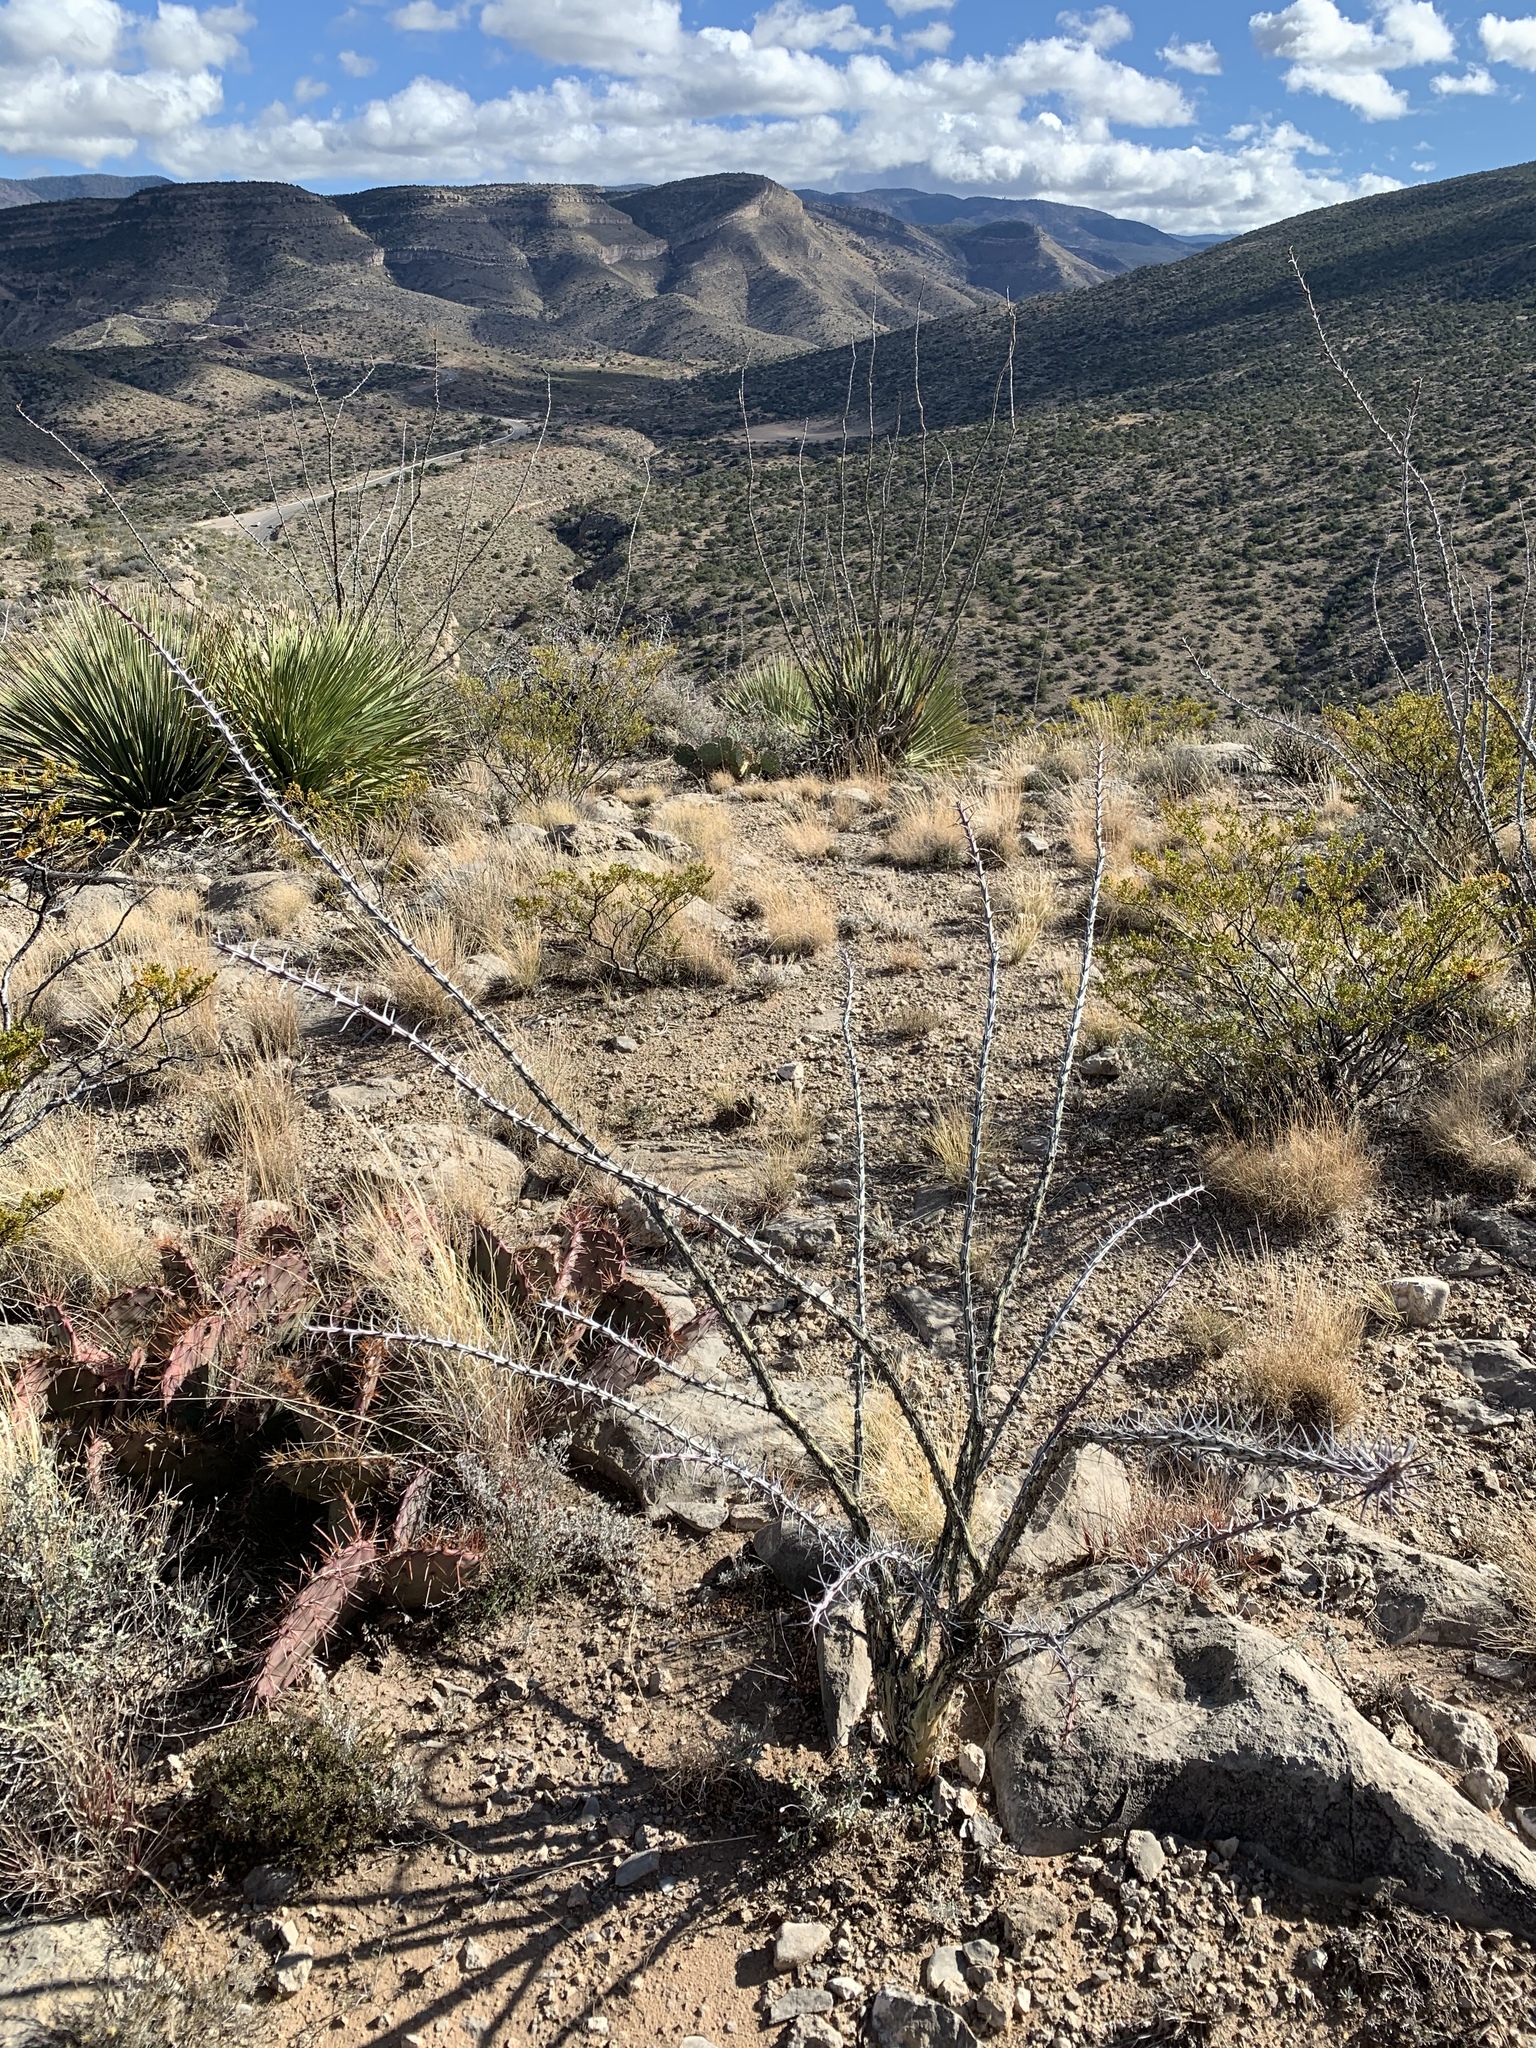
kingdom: Plantae
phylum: Tracheophyta
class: Magnoliopsida
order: Ericales
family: Fouquieriaceae
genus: Fouquieria
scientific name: Fouquieria splendens
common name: Vine-cactus
